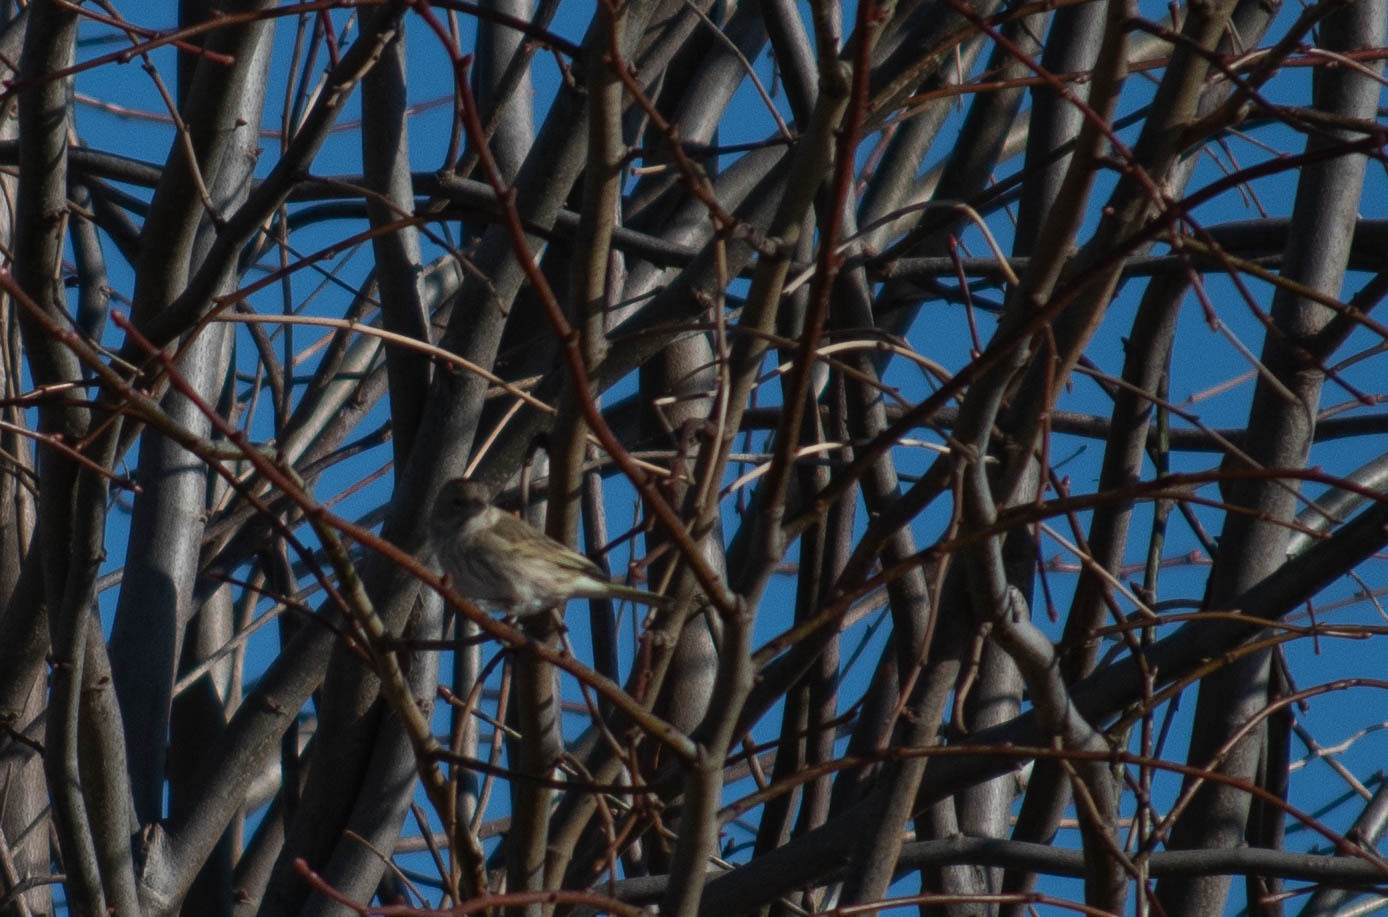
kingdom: Animalia
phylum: Chordata
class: Aves
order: Passeriformes
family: Thraupidae
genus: Sicalis
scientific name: Sicalis flaveola
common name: Saffron finch
